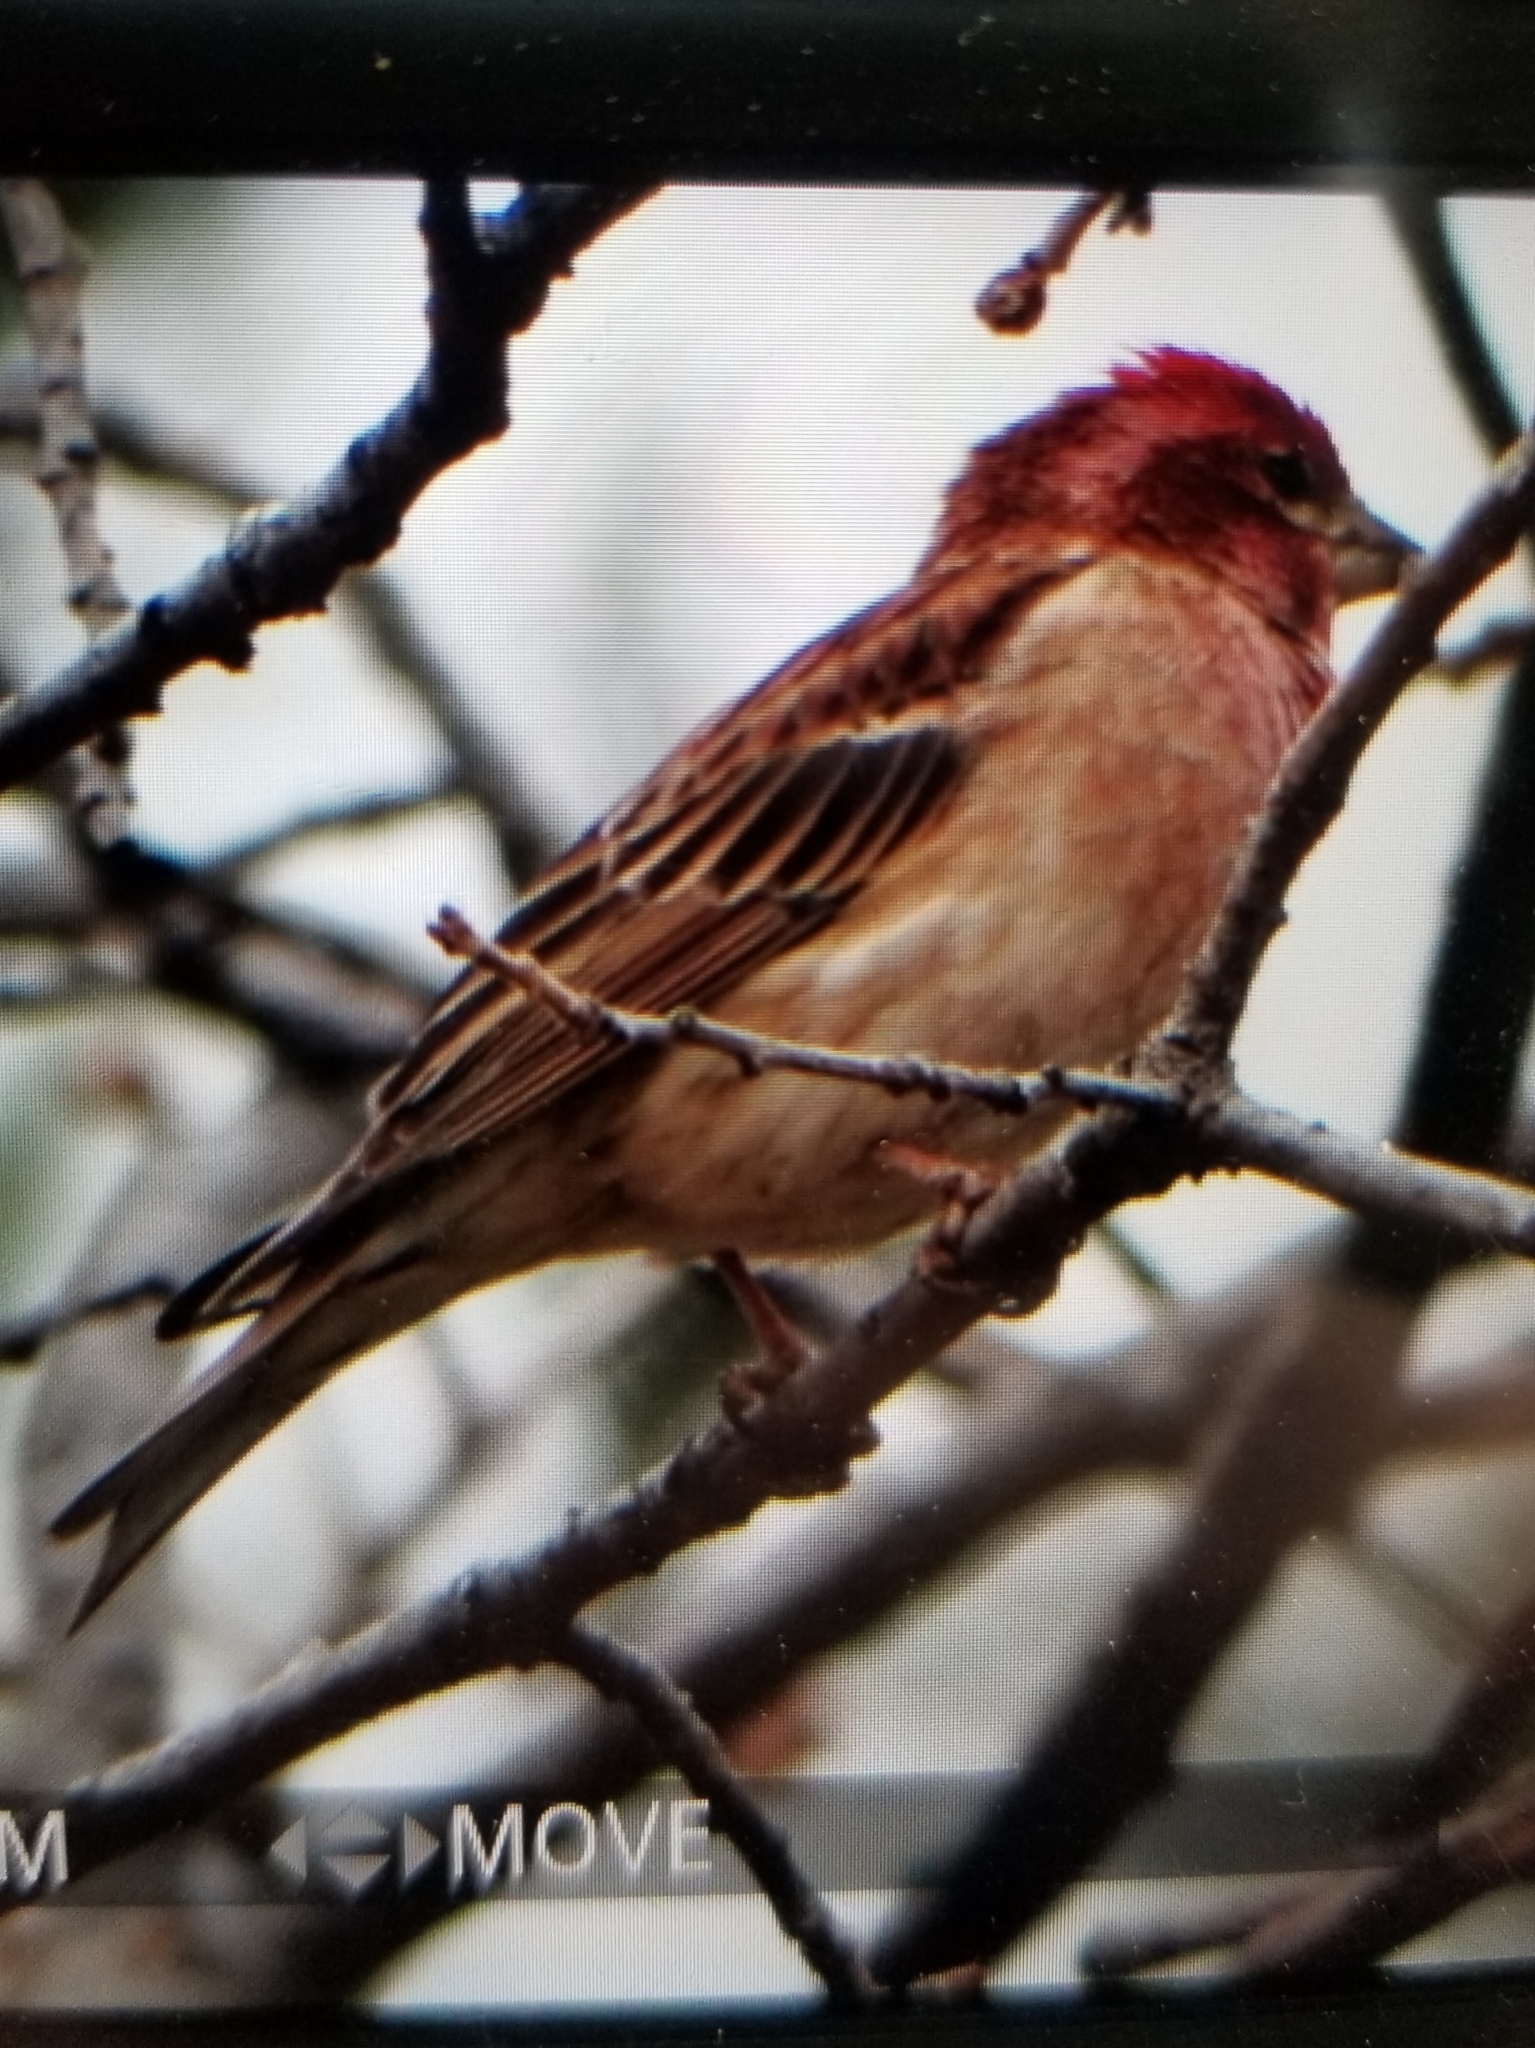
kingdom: Animalia
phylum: Chordata
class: Aves
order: Passeriformes
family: Fringillidae
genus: Haemorhous
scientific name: Haemorhous cassinii
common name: Cassin's finch
